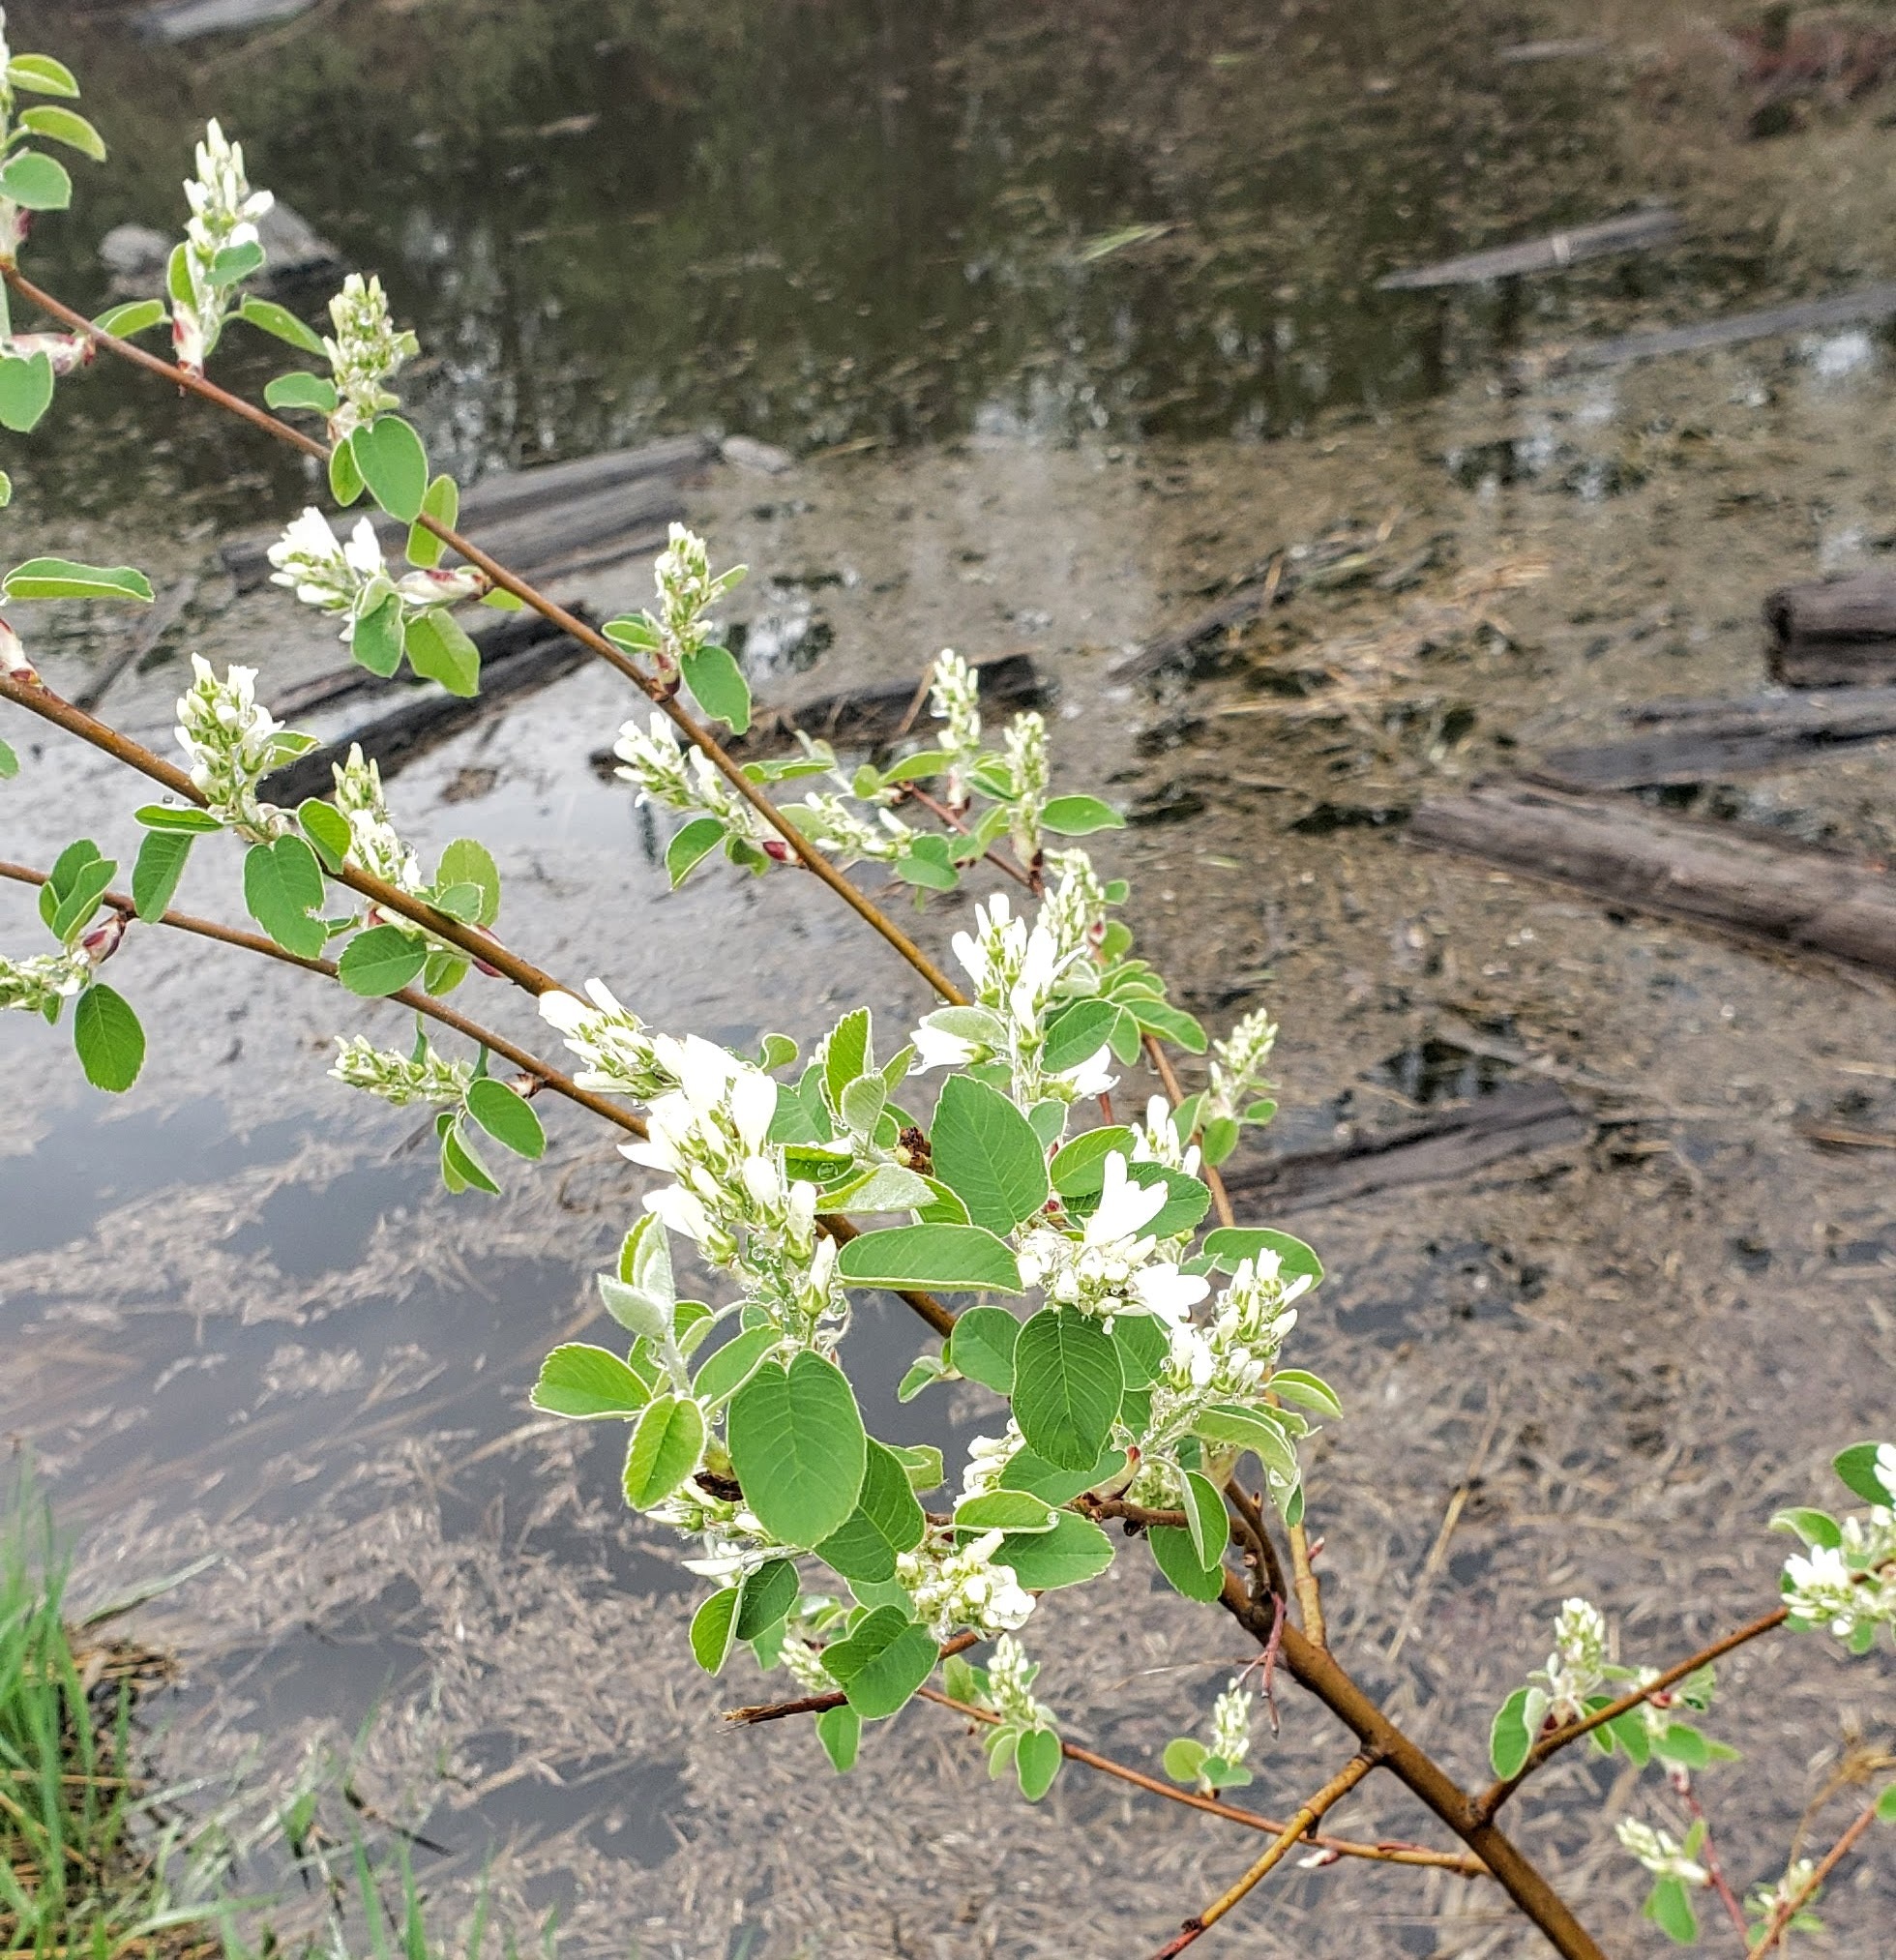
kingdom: Plantae
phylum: Tracheophyta
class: Magnoliopsida
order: Rosales
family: Rosaceae
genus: Amelanchier
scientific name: Amelanchier alnifolia
